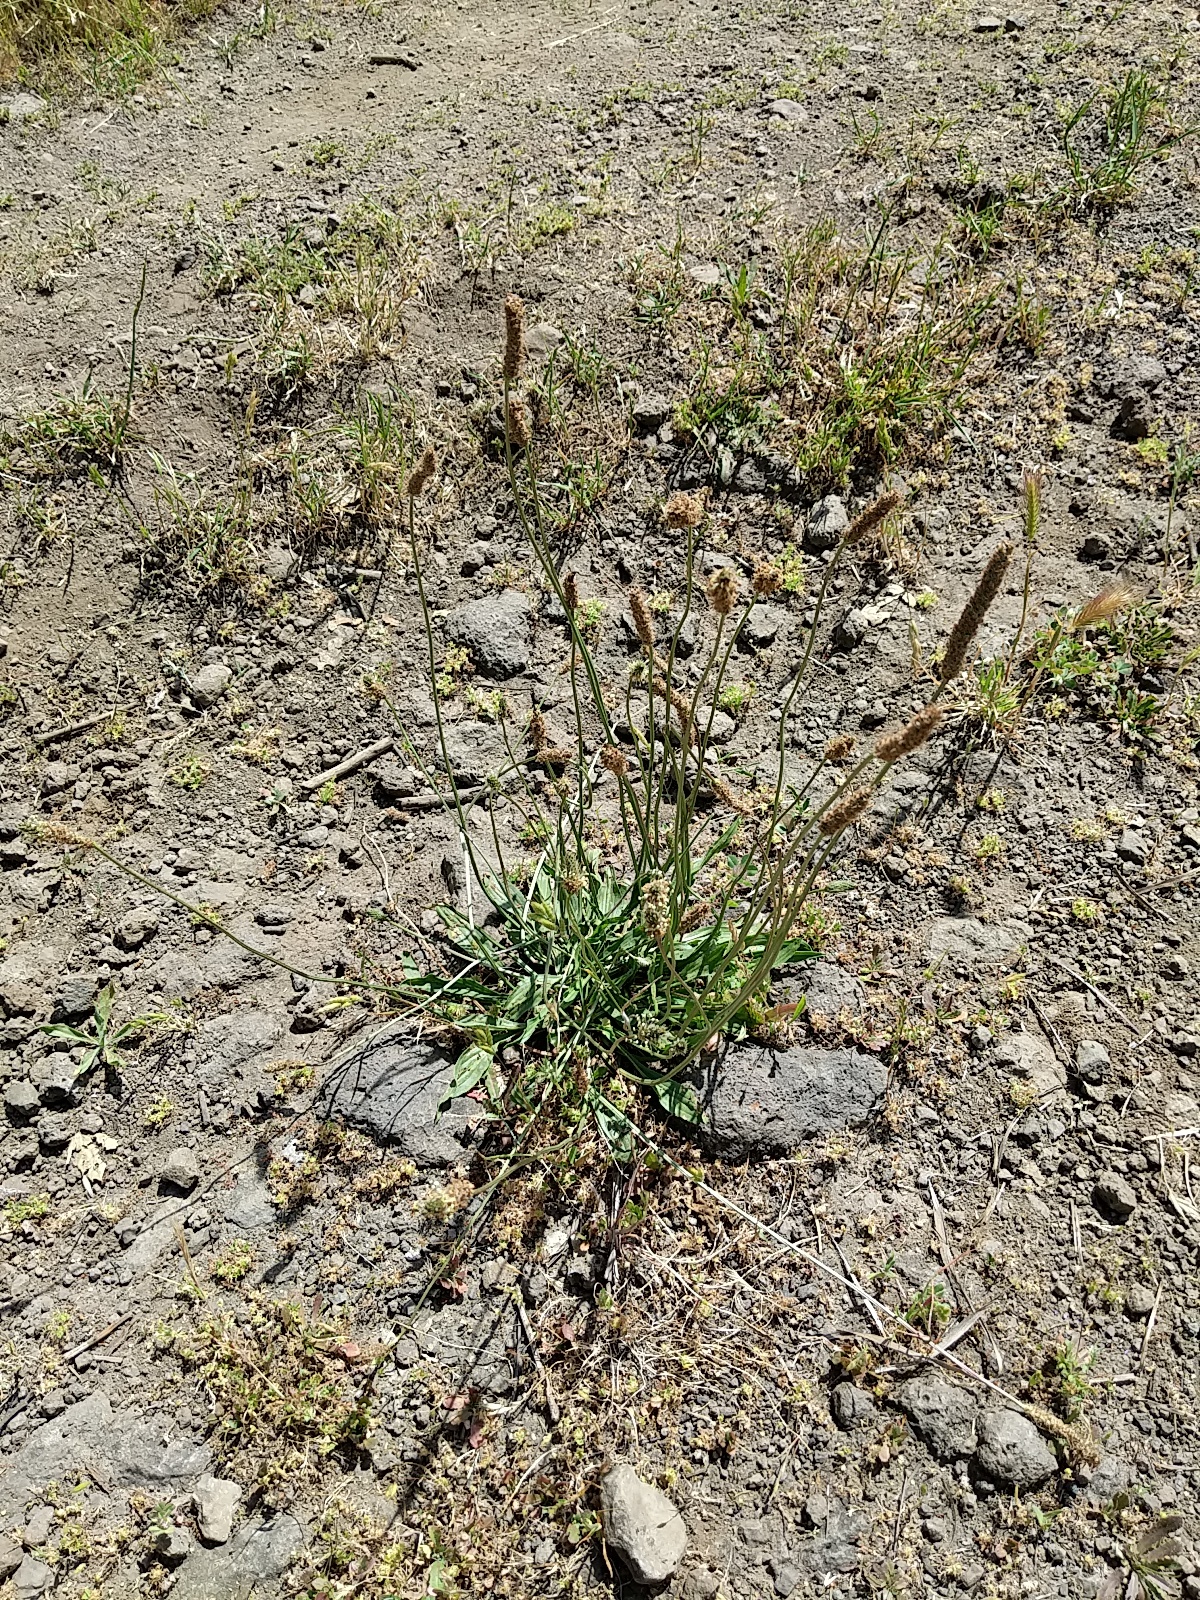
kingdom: Plantae
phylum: Tracheophyta
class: Magnoliopsida
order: Lamiales
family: Plantaginaceae
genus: Plantago
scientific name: Plantago lanceolata
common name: Ribwort plantain
